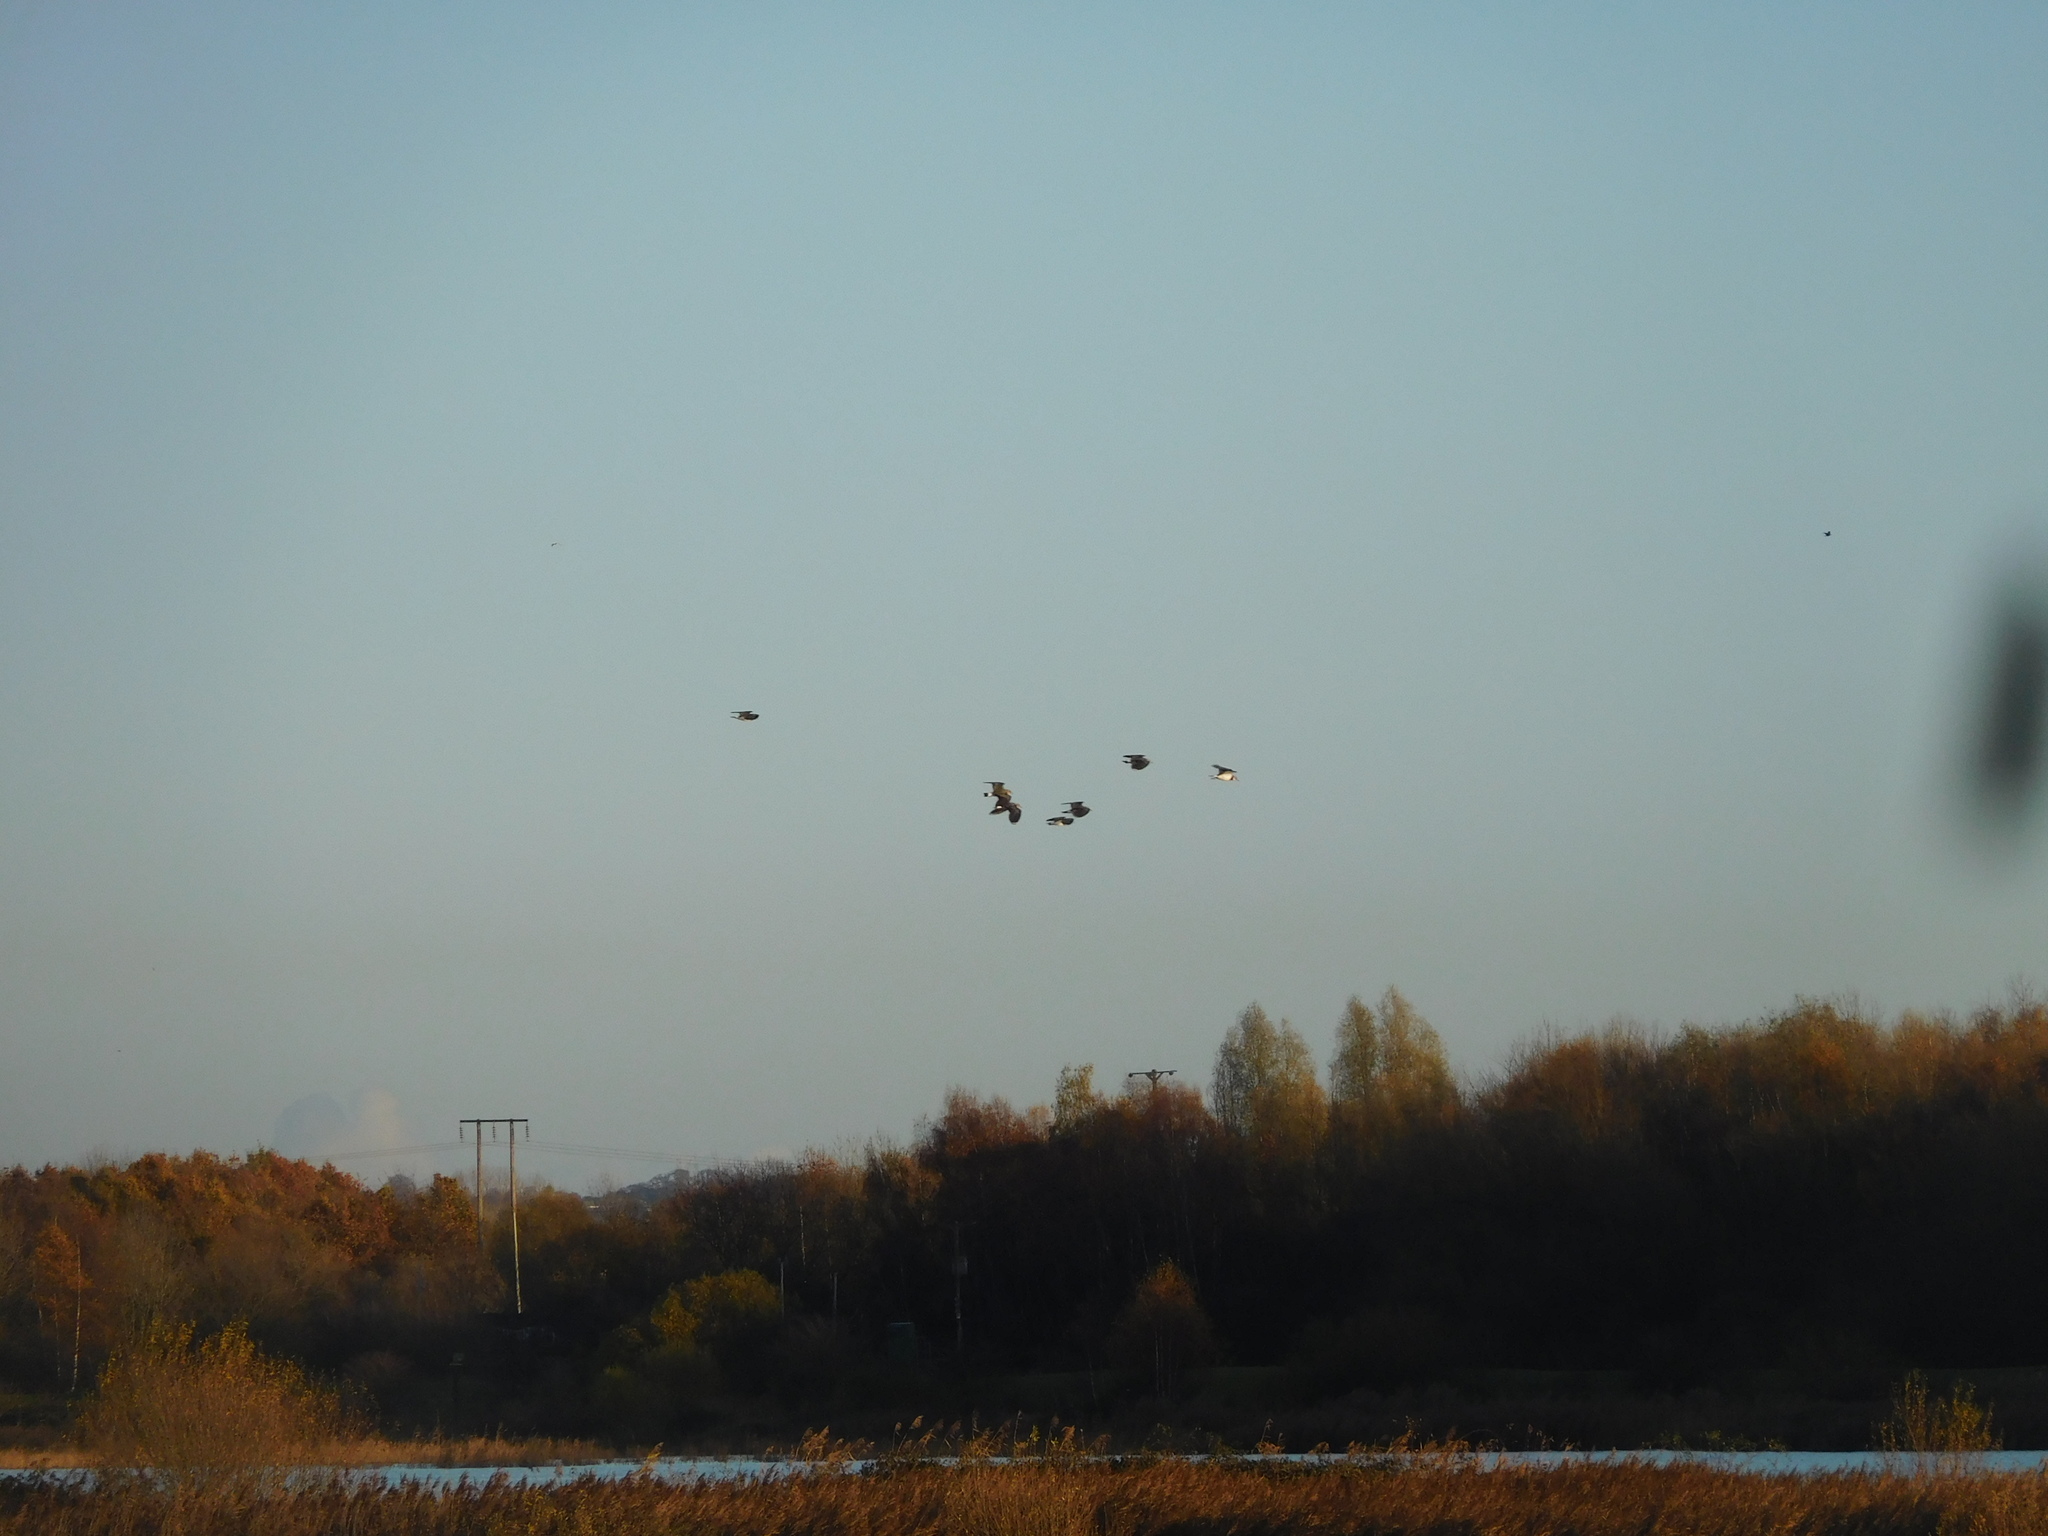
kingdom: Animalia
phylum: Chordata
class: Aves
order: Charadriiformes
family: Charadriidae
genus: Vanellus
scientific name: Vanellus vanellus
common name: Northern lapwing
